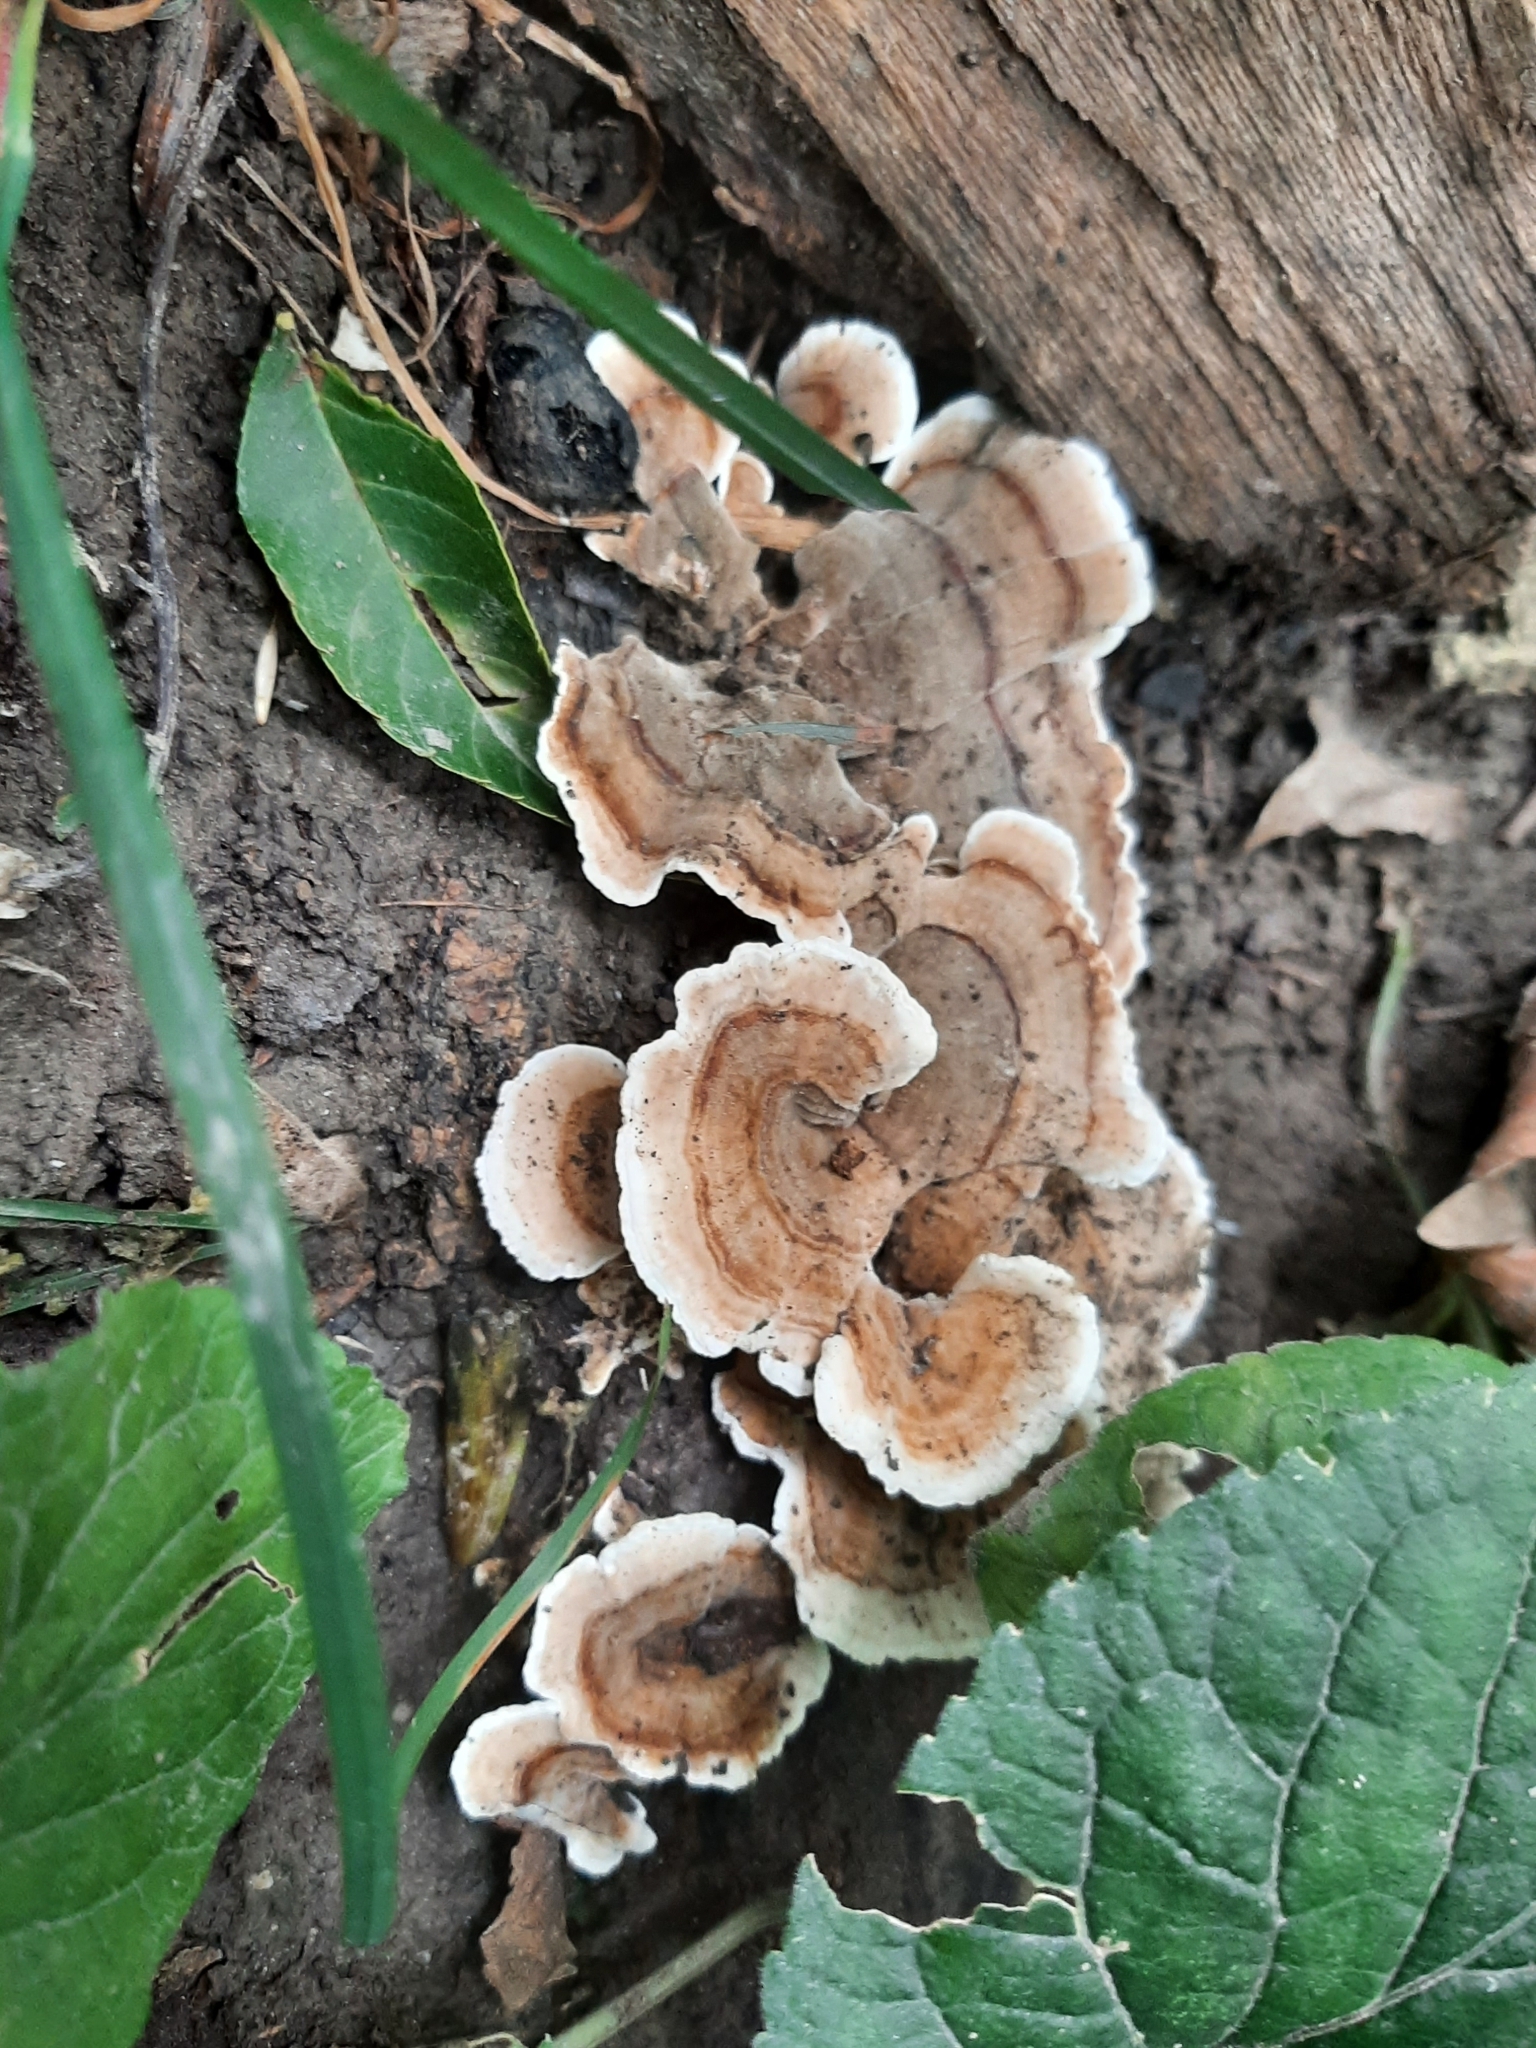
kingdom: Fungi
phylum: Basidiomycota
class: Agaricomycetes
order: Polyporales
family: Polyporaceae
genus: Trametes
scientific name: Trametes versicolor
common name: Turkeytail
